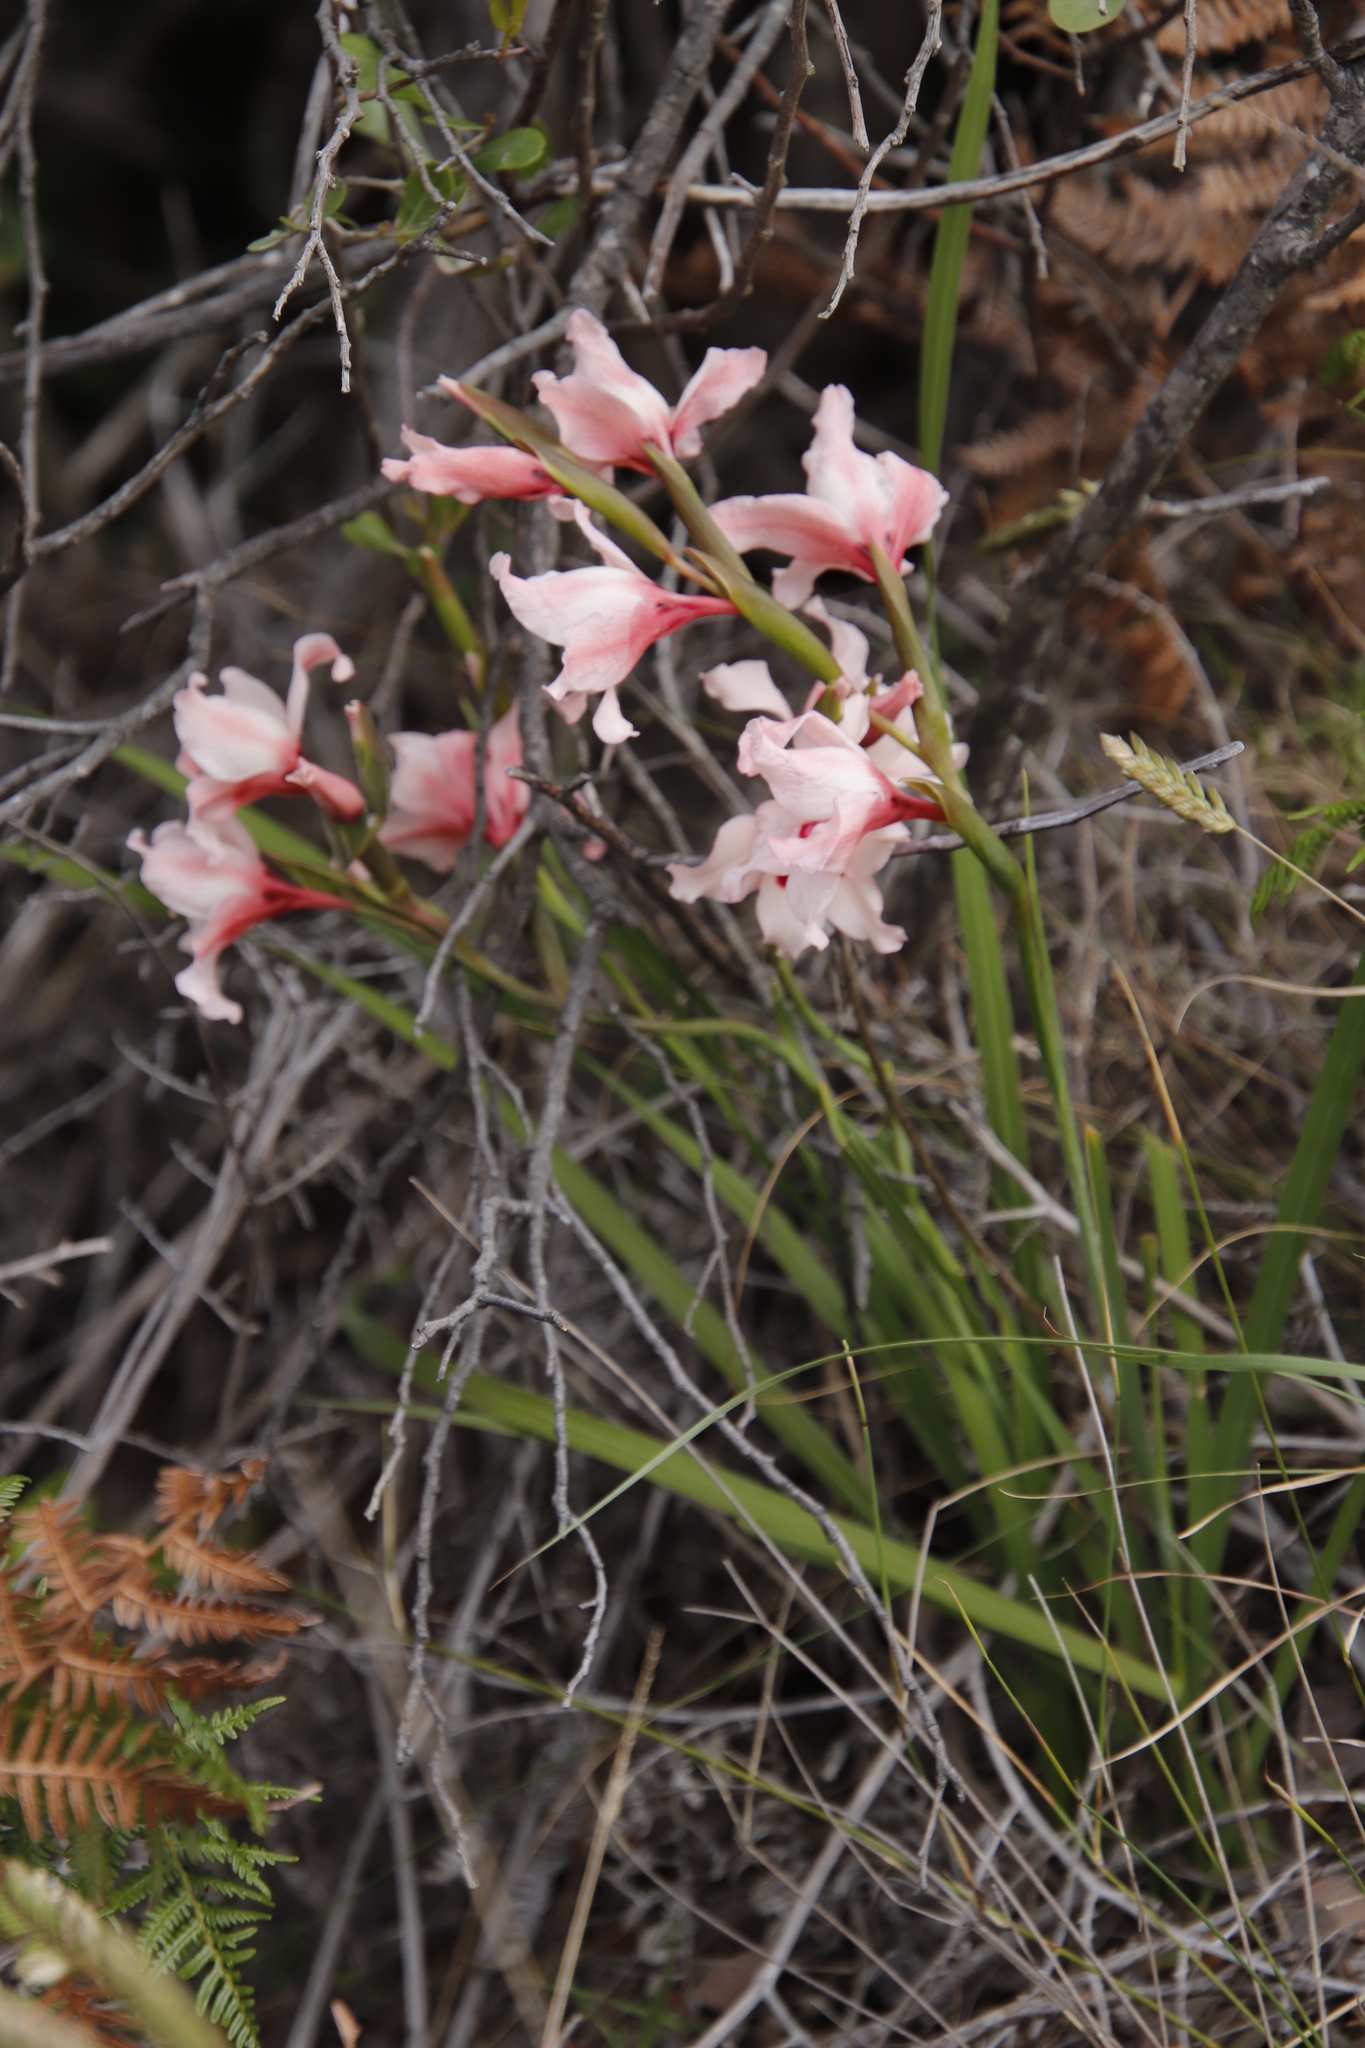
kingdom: Plantae
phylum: Tracheophyta
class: Liliopsida
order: Asparagales
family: Iridaceae
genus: Gladiolus
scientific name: Gladiolus carneus
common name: Painted-lady
